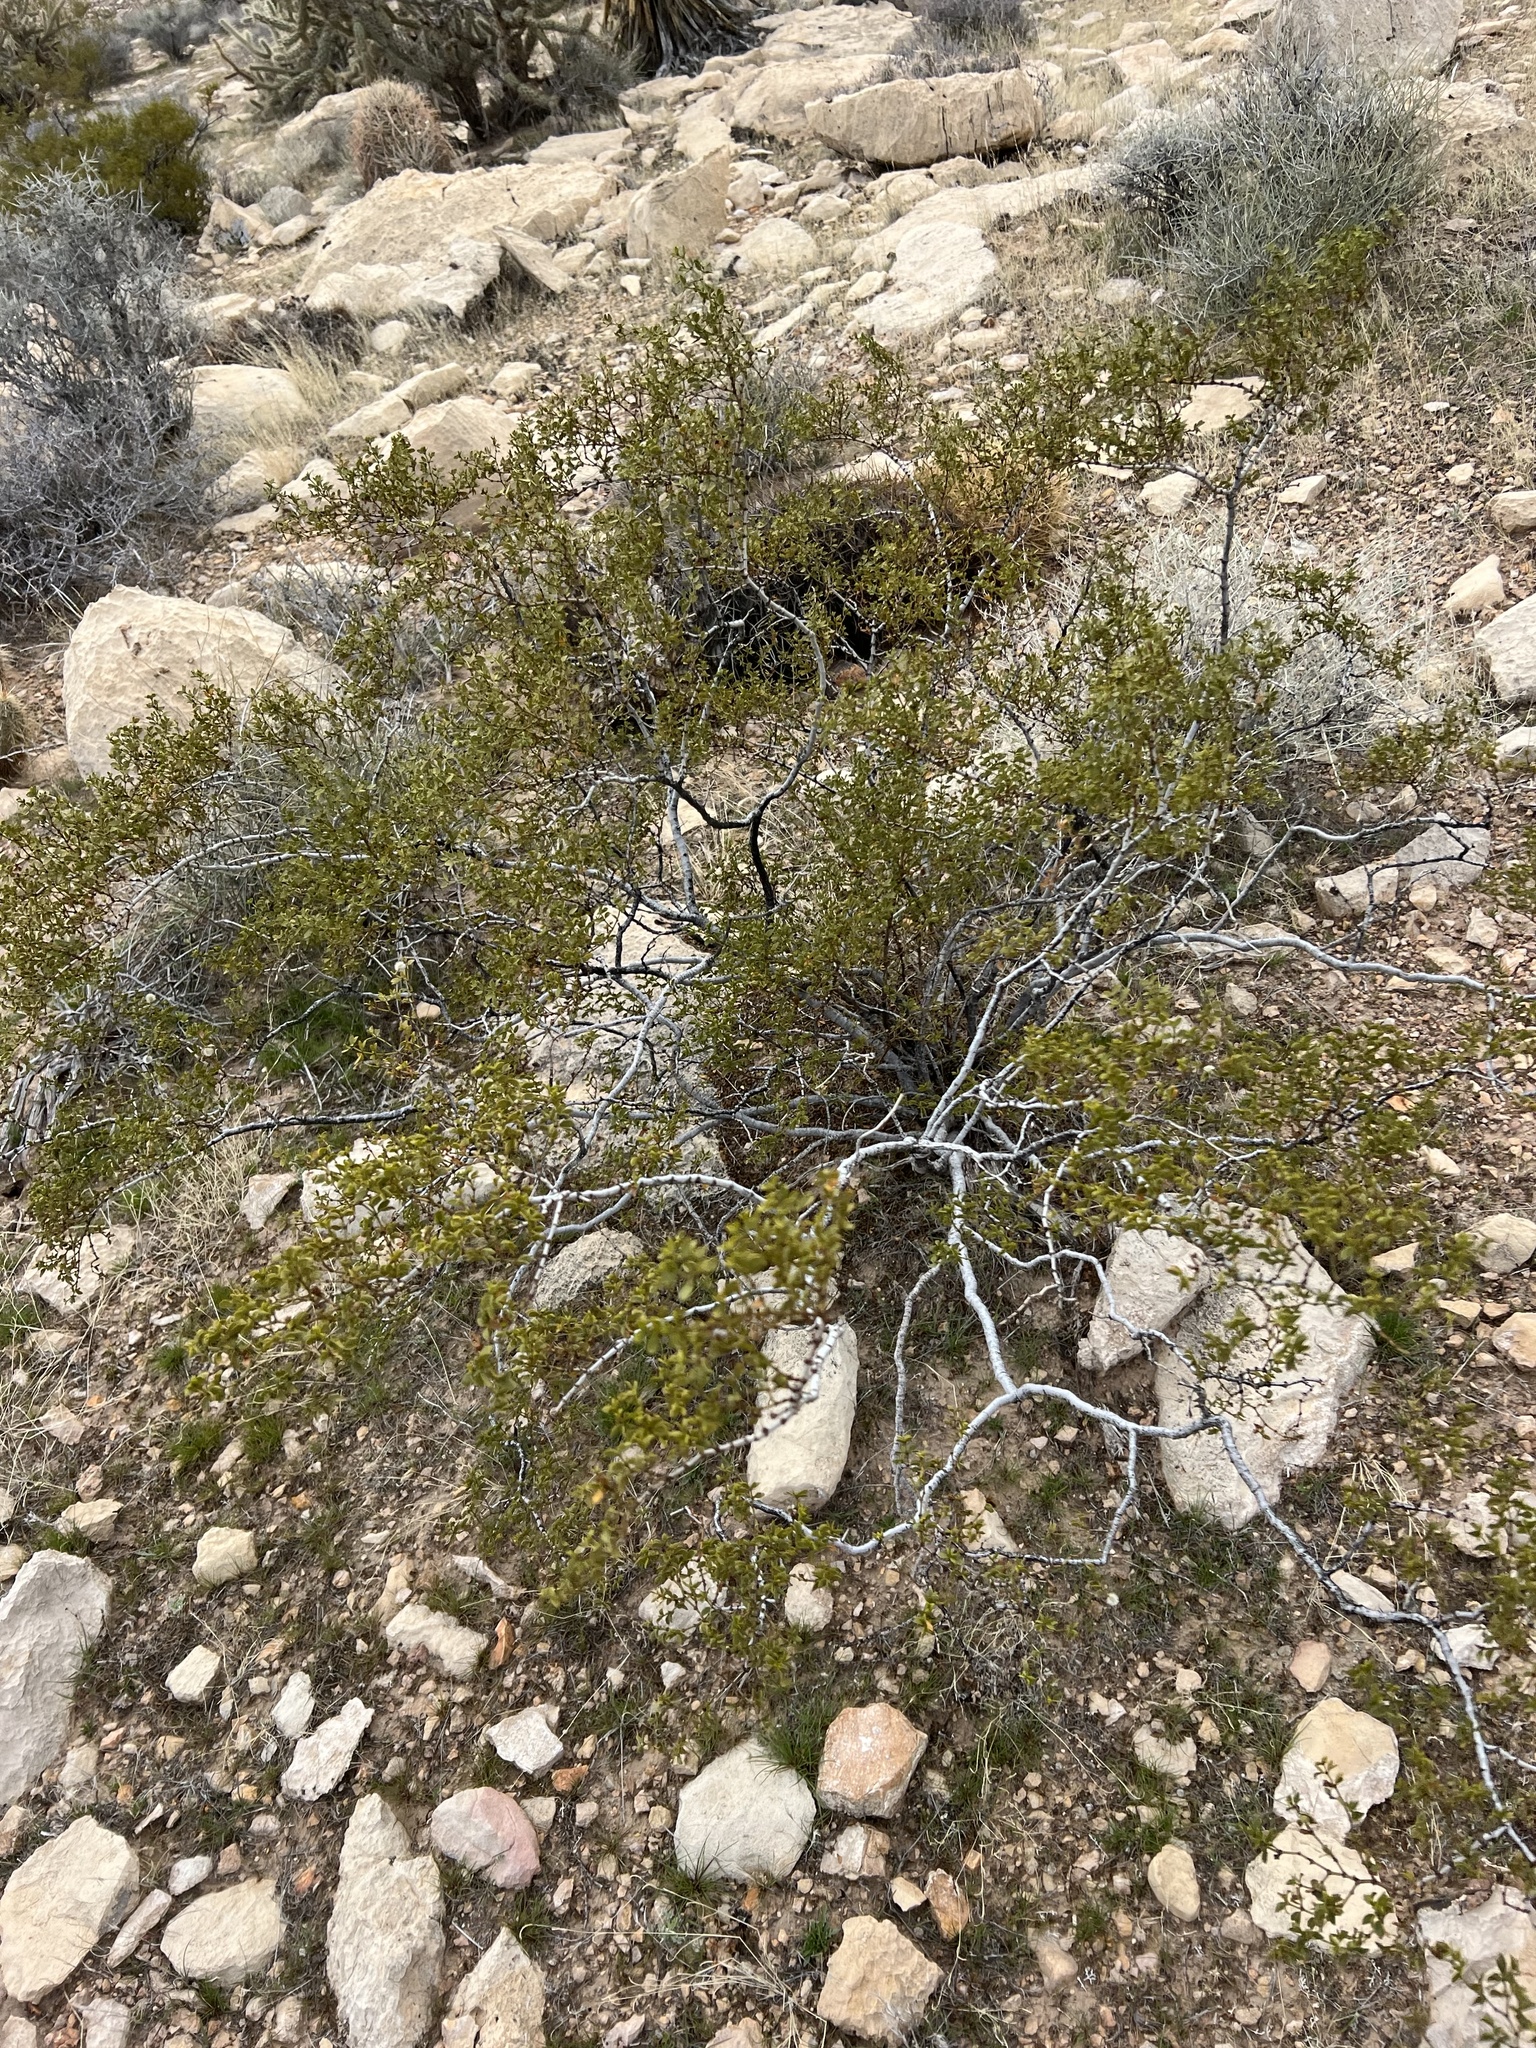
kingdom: Plantae
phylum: Tracheophyta
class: Magnoliopsida
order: Zygophyllales
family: Zygophyllaceae
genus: Larrea
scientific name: Larrea tridentata
